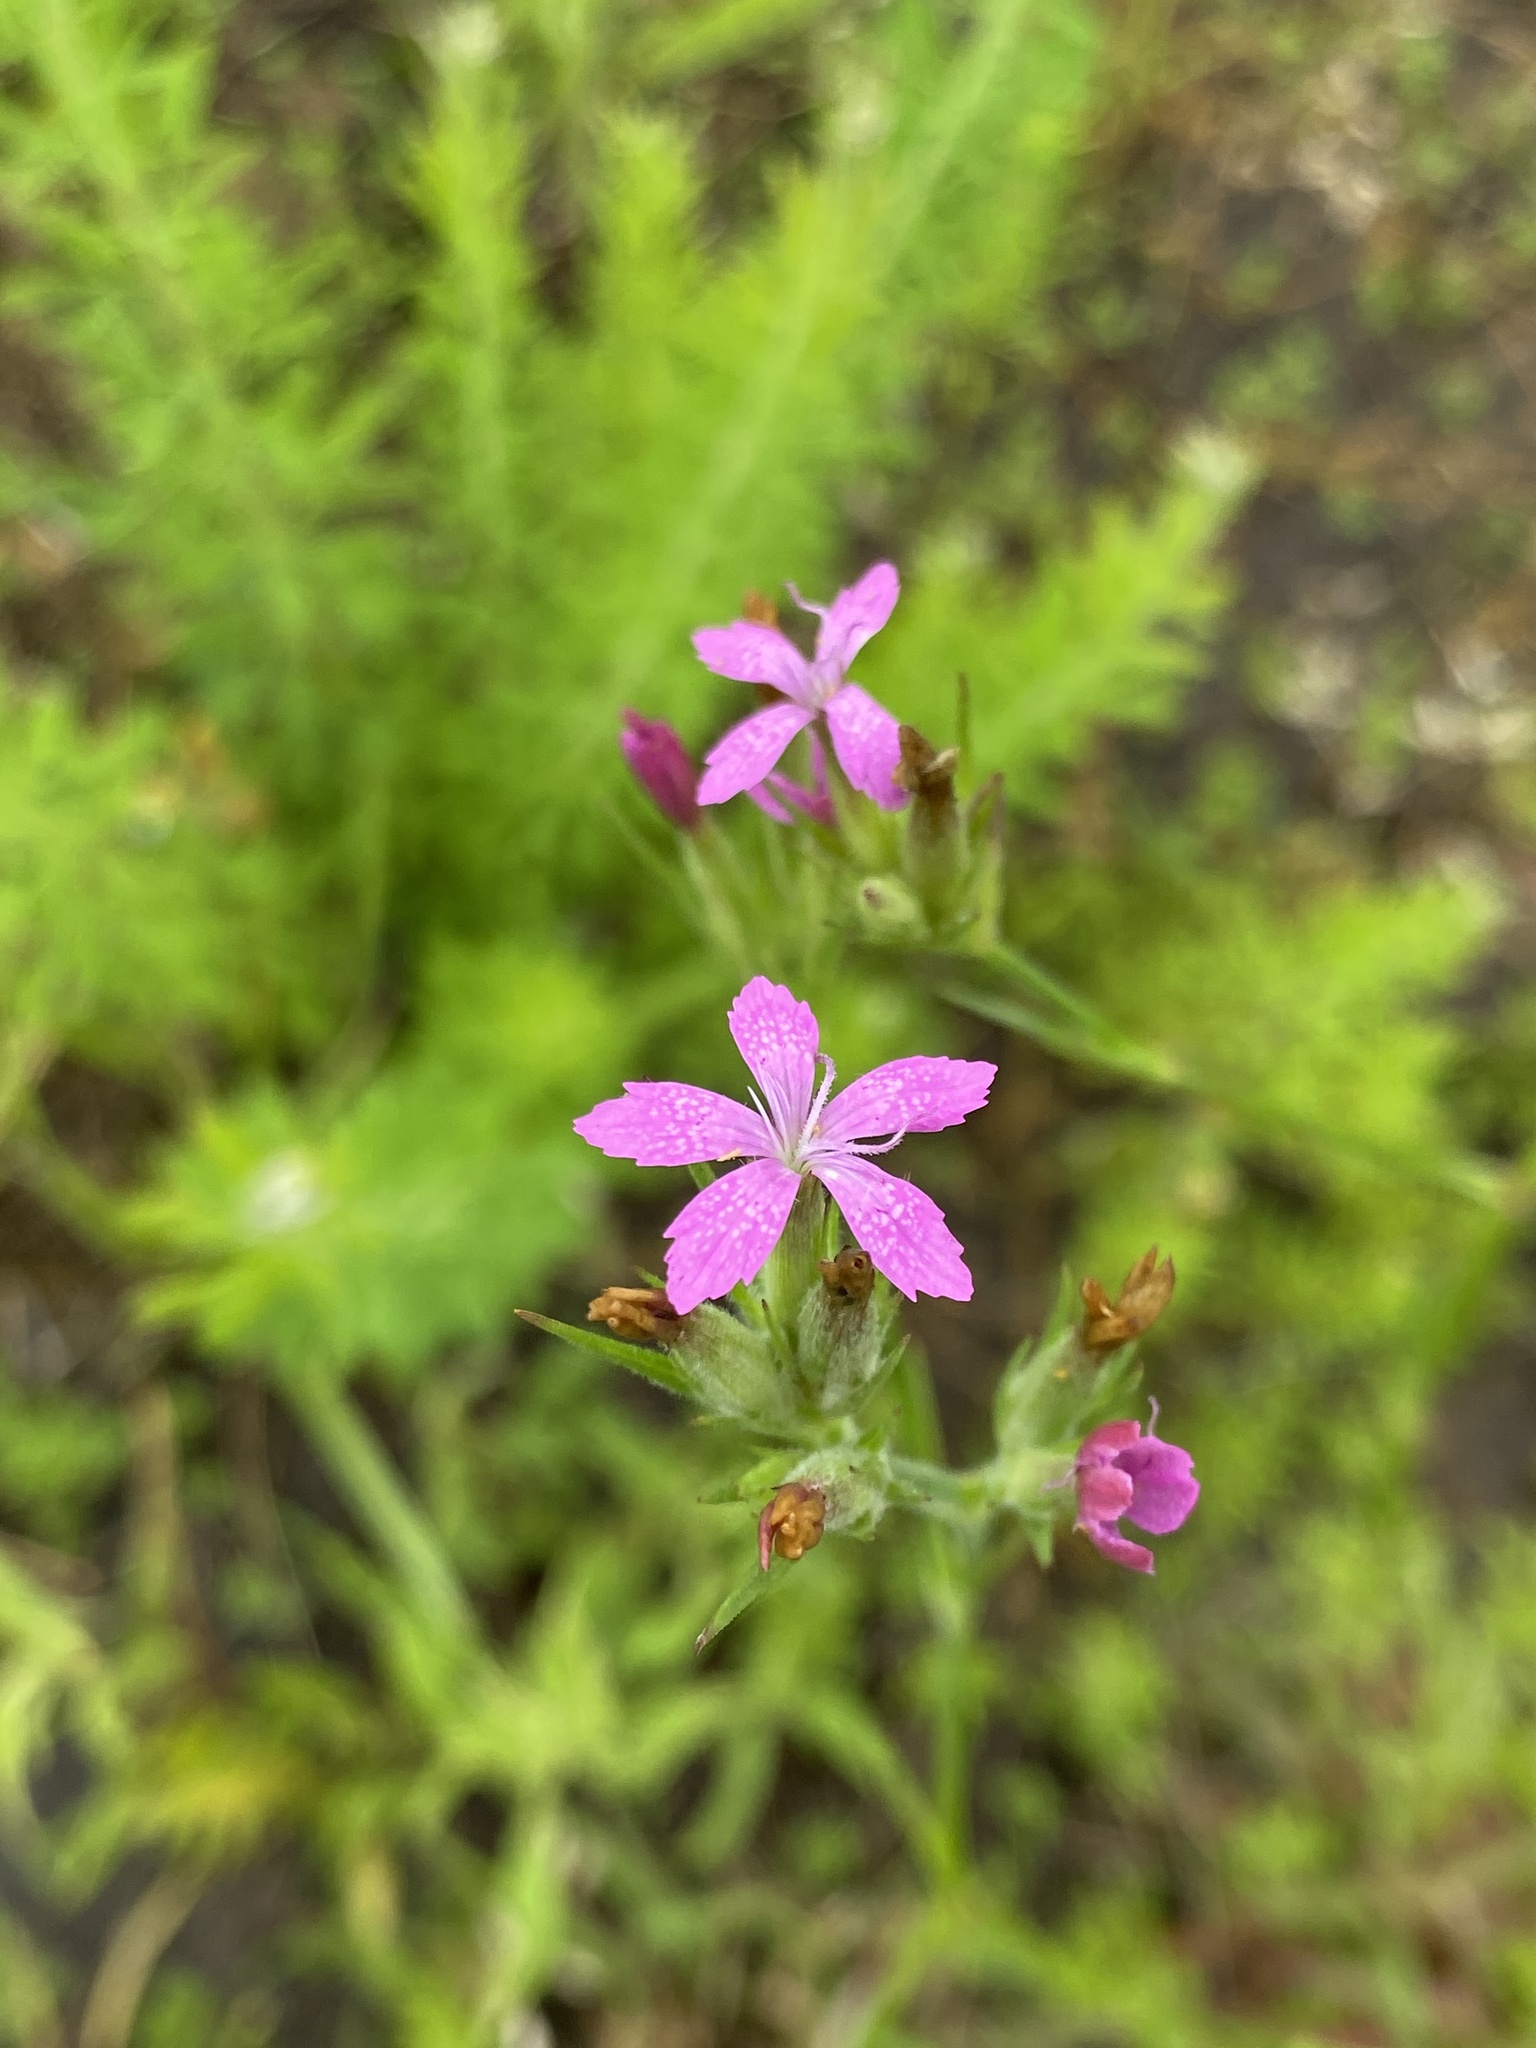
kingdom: Plantae
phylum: Tracheophyta
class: Magnoliopsida
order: Caryophyllales
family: Caryophyllaceae
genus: Dianthus
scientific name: Dianthus armeria
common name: Deptford pink
